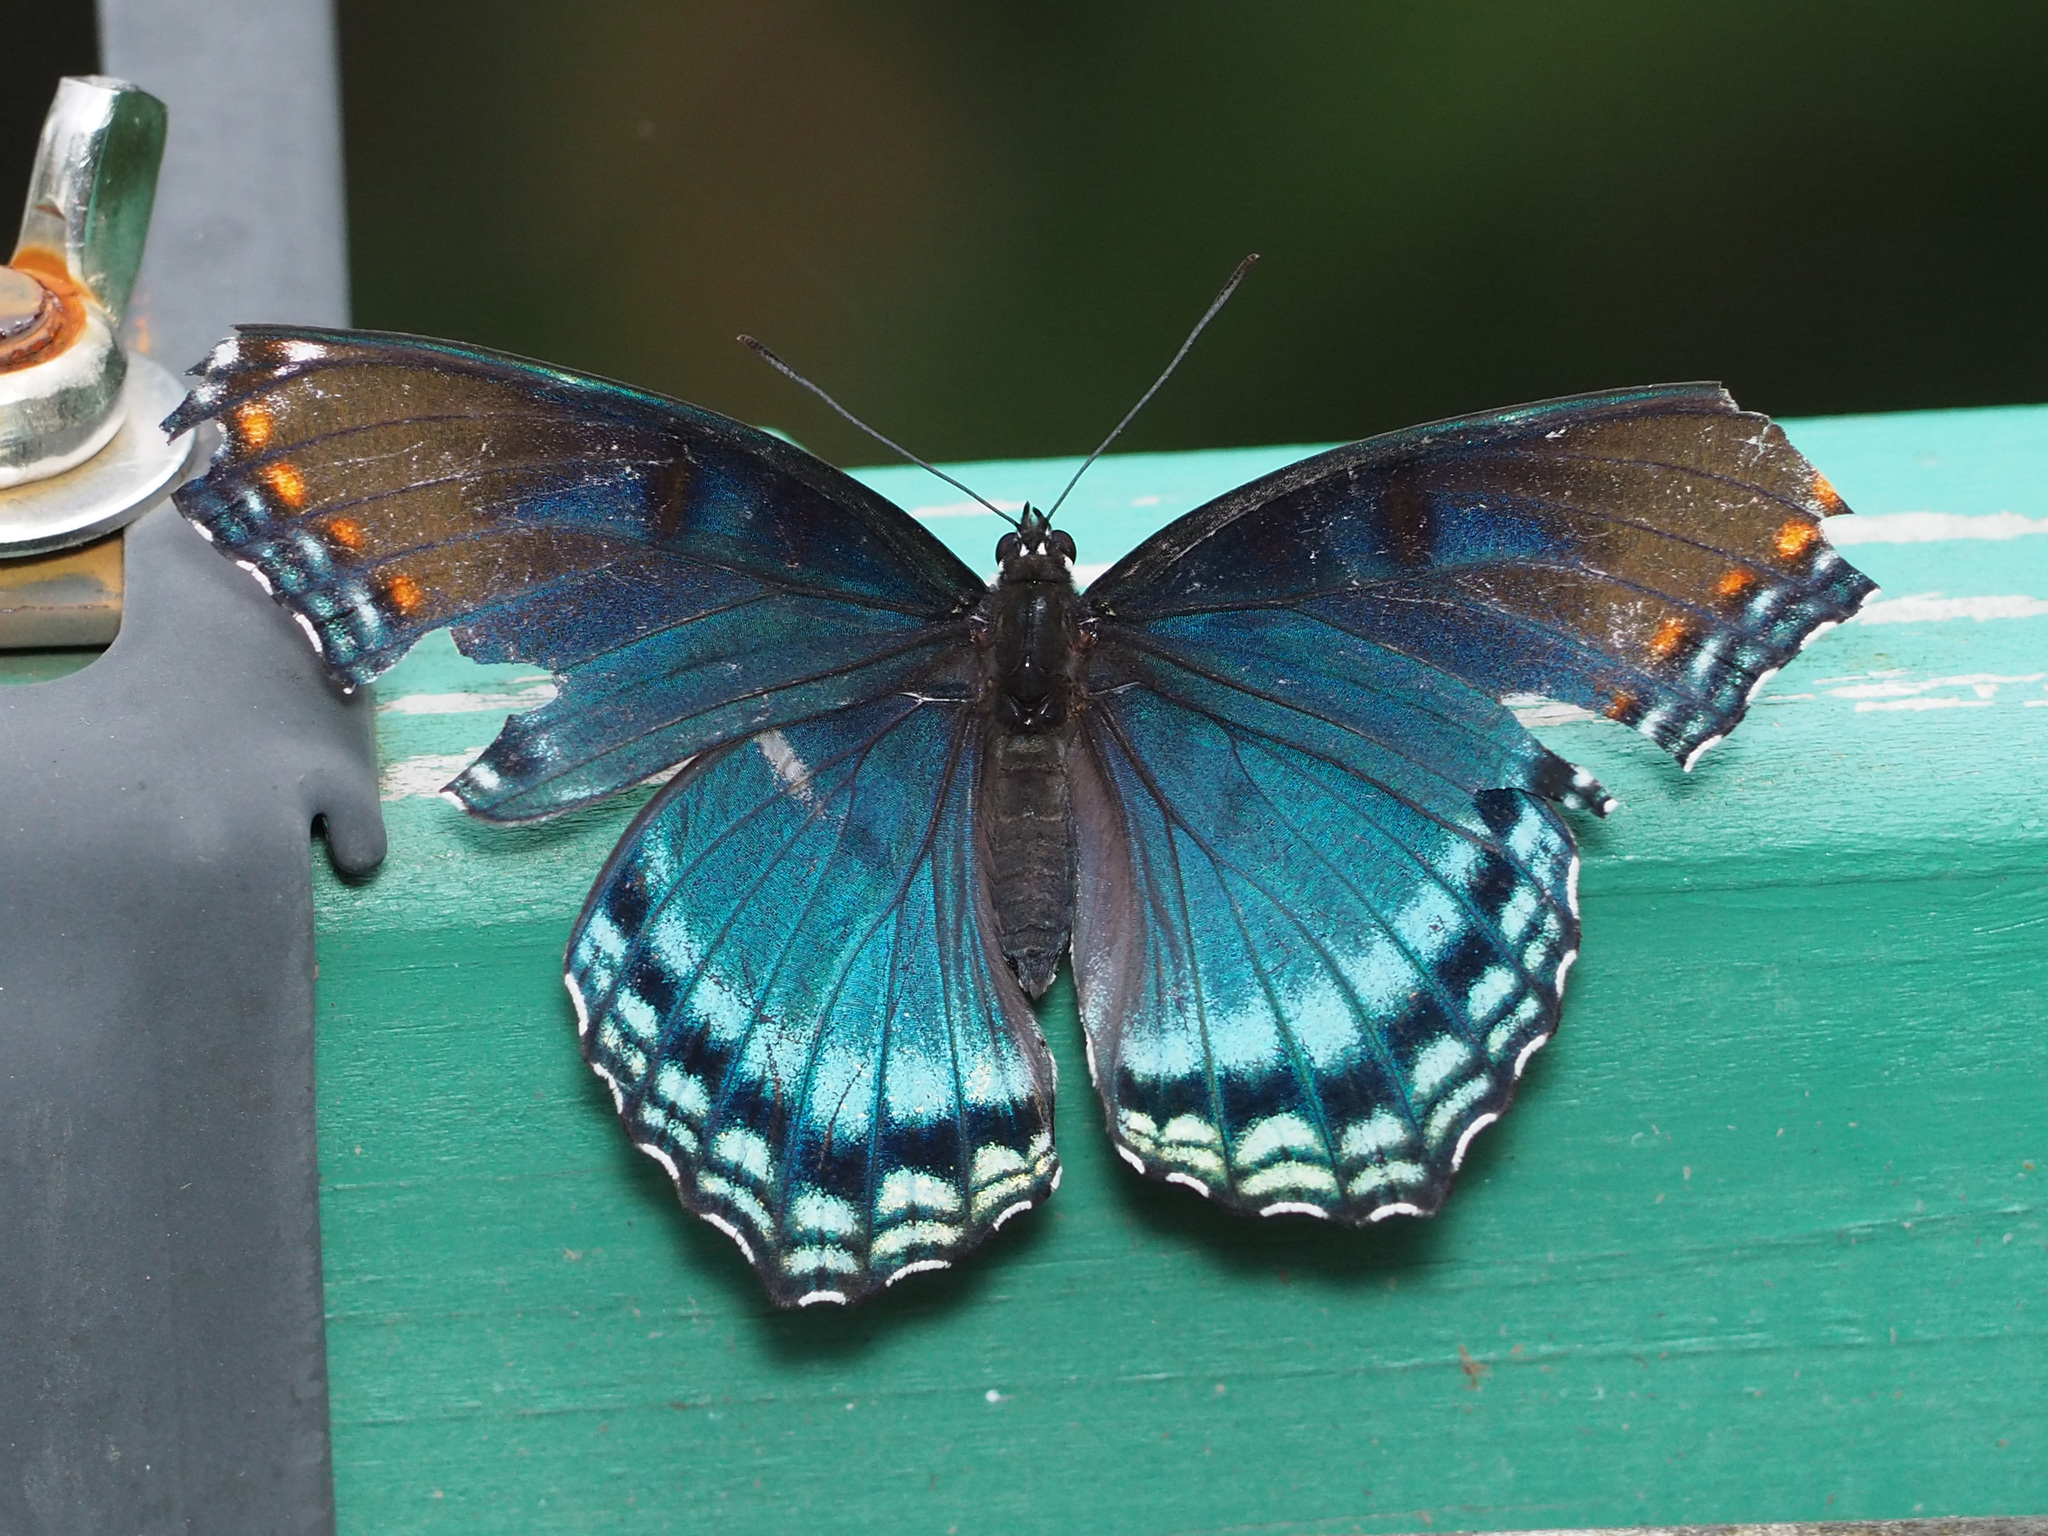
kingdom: Animalia
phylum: Arthropoda
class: Insecta
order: Lepidoptera
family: Nymphalidae
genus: Limenitis
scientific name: Limenitis astyanax
